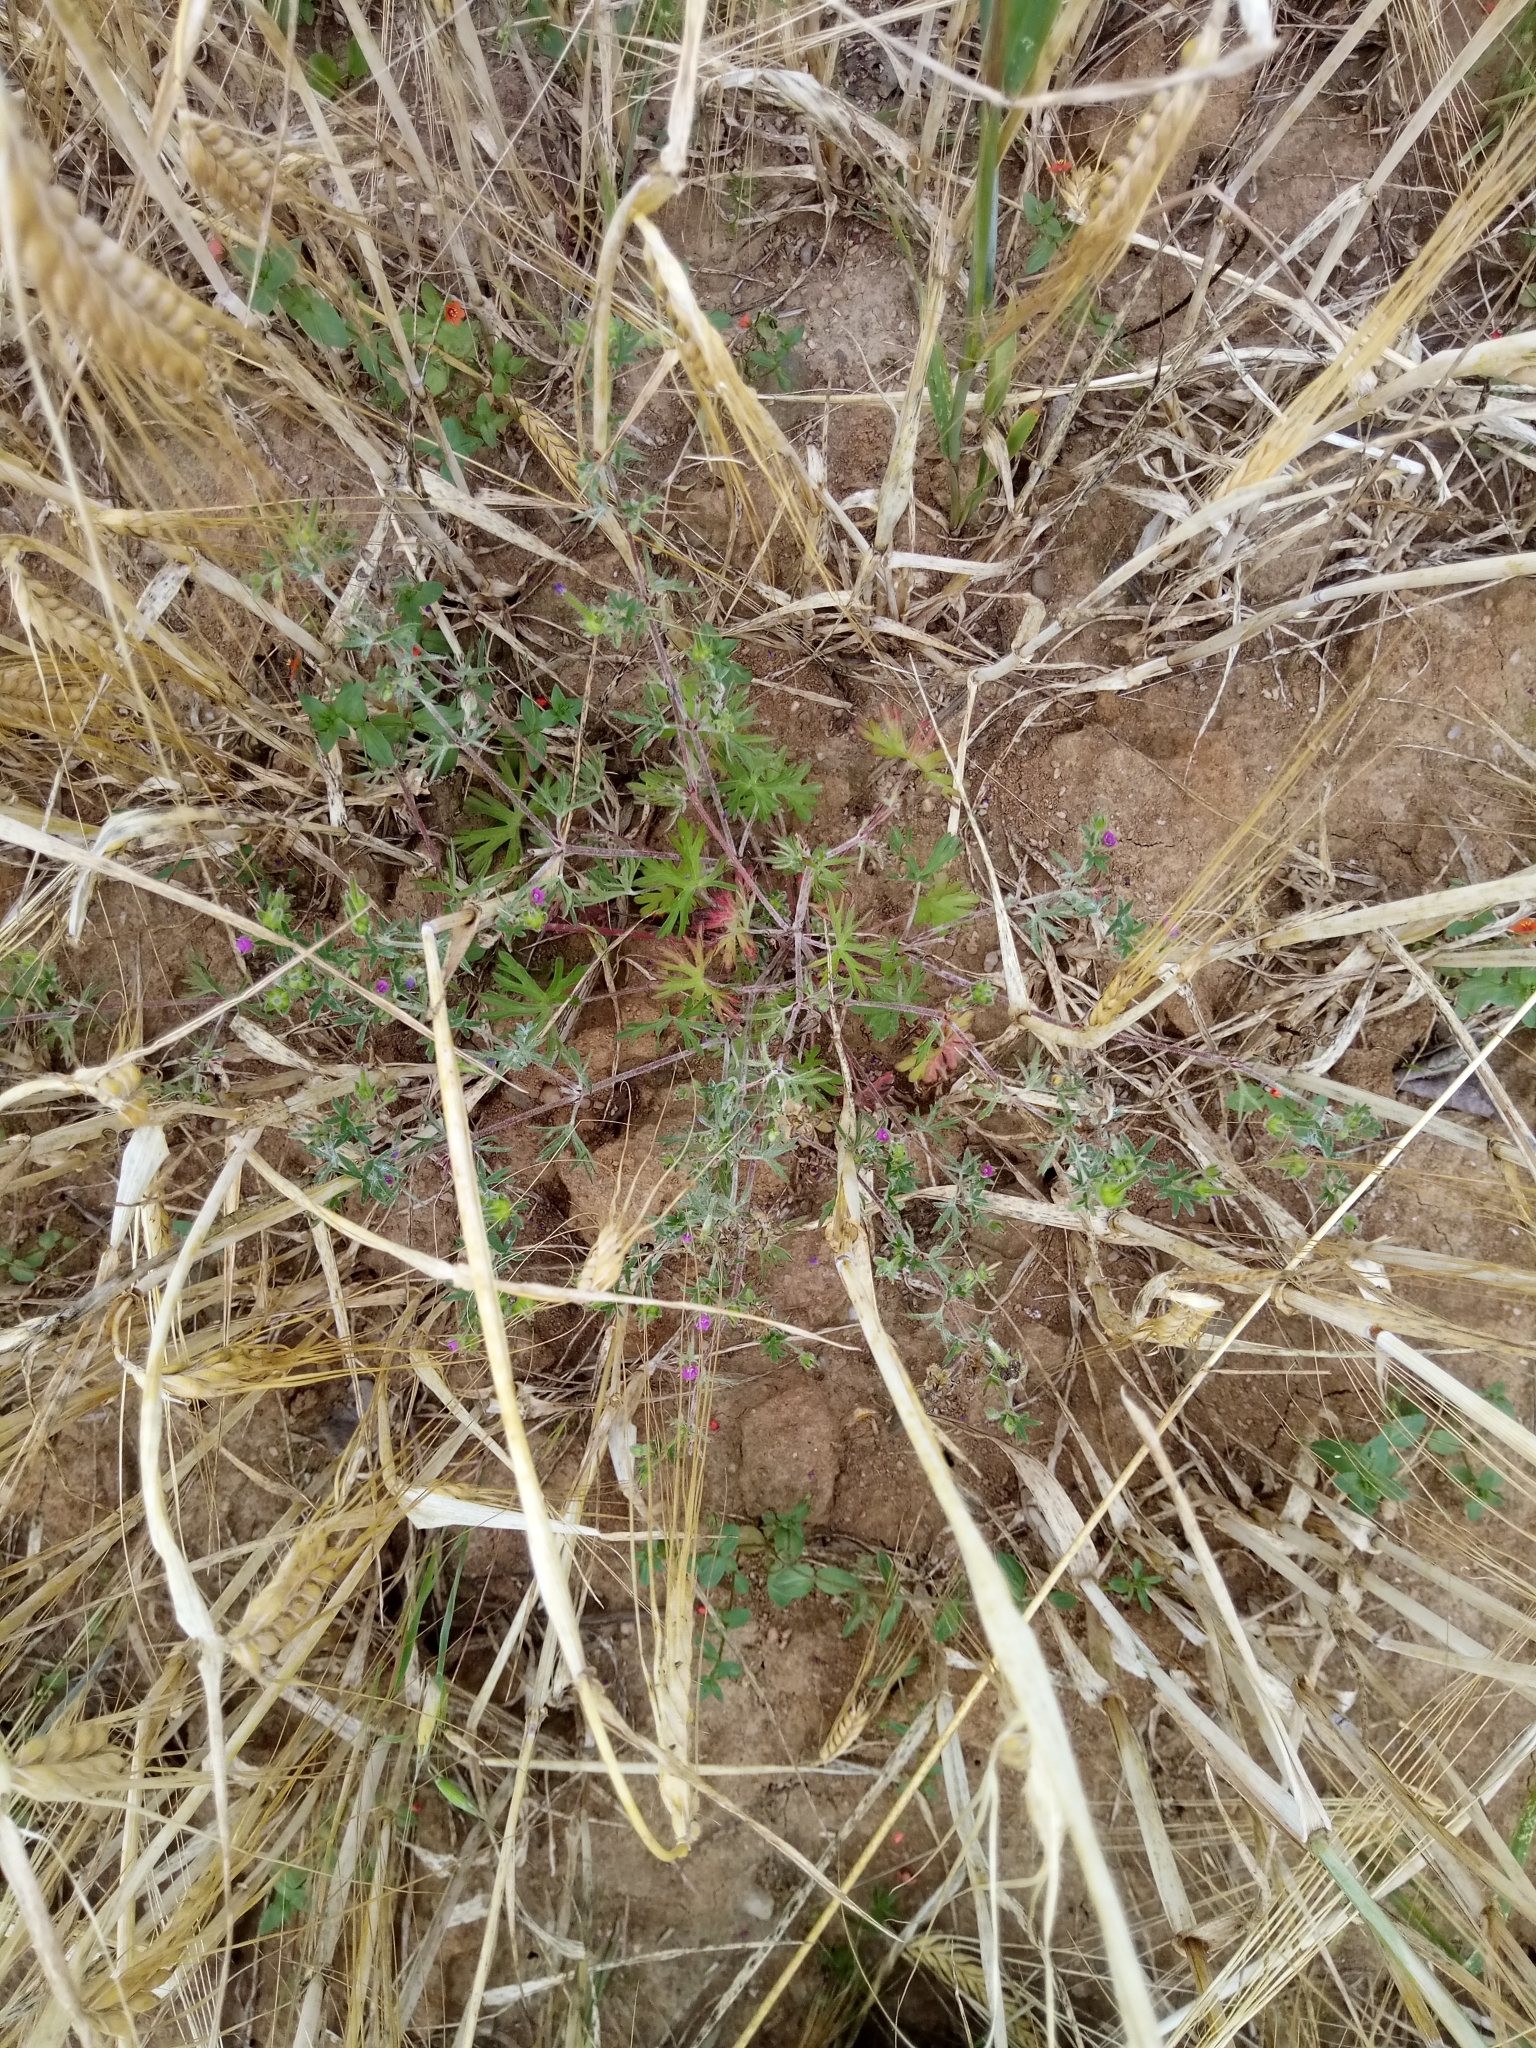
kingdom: Plantae
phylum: Tracheophyta
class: Magnoliopsida
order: Geraniales
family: Geraniaceae
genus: Geranium
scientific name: Geranium dissectum
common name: Cut-leaved crane's-bill
